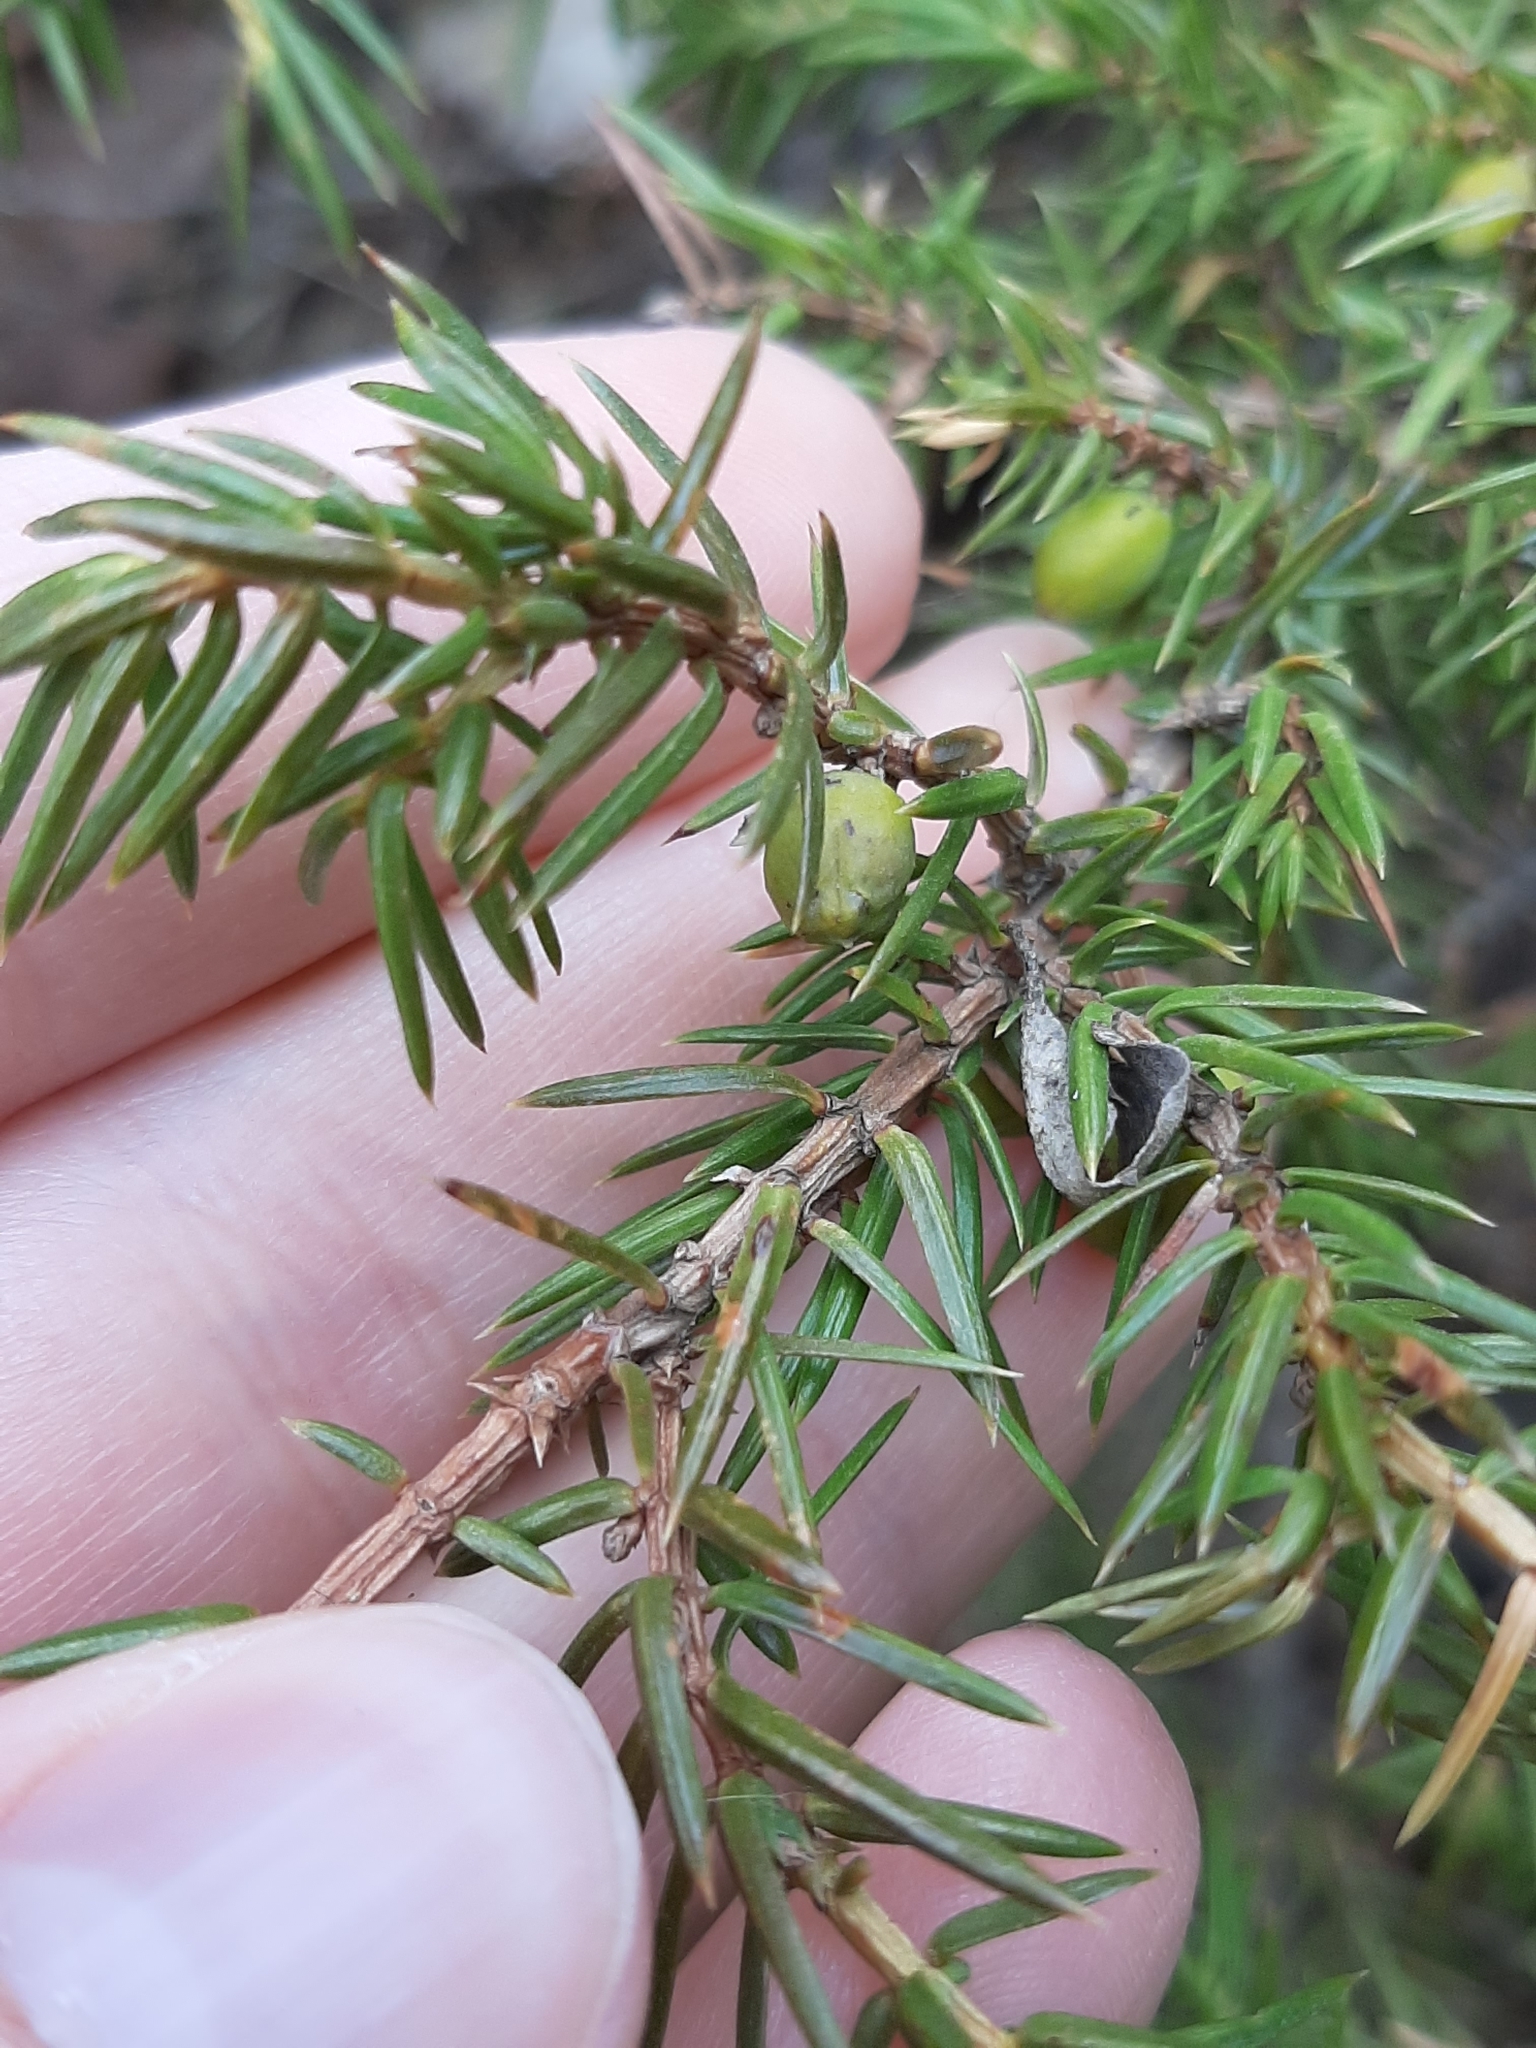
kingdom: Plantae
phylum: Tracheophyta
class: Pinopsida
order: Pinales
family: Cupressaceae
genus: Juniperus
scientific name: Juniperus communis
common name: Common juniper
